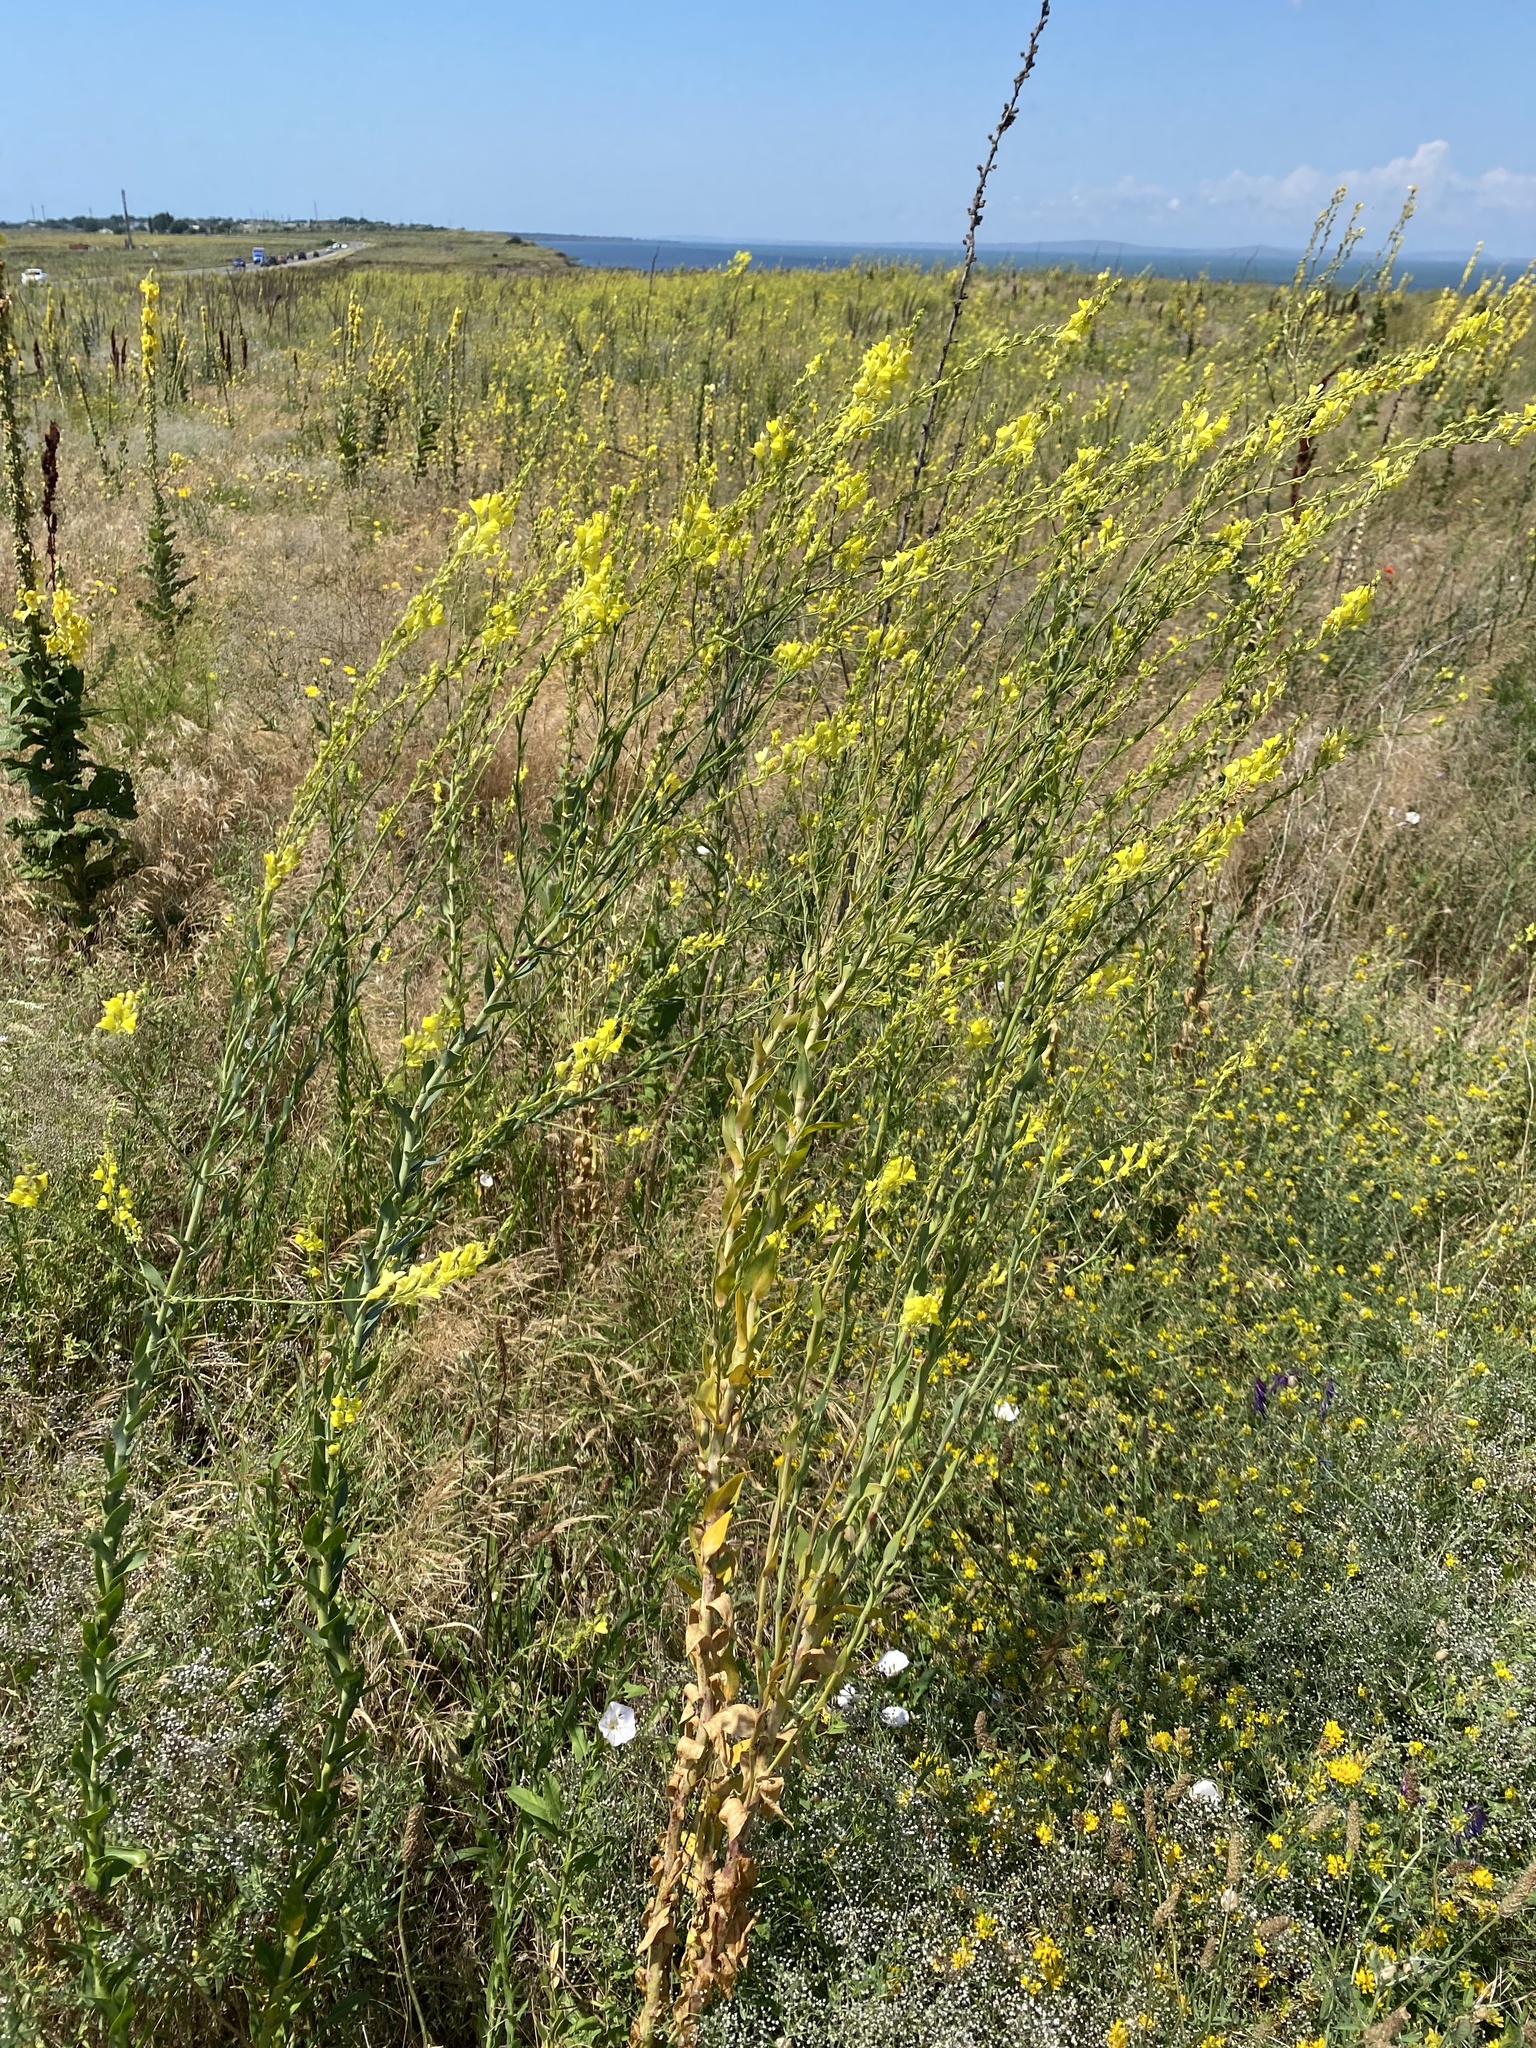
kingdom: Plantae
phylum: Tracheophyta
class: Magnoliopsida
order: Lamiales
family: Plantaginaceae
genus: Linaria
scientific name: Linaria genistifolia
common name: Broomleaf toadflax
